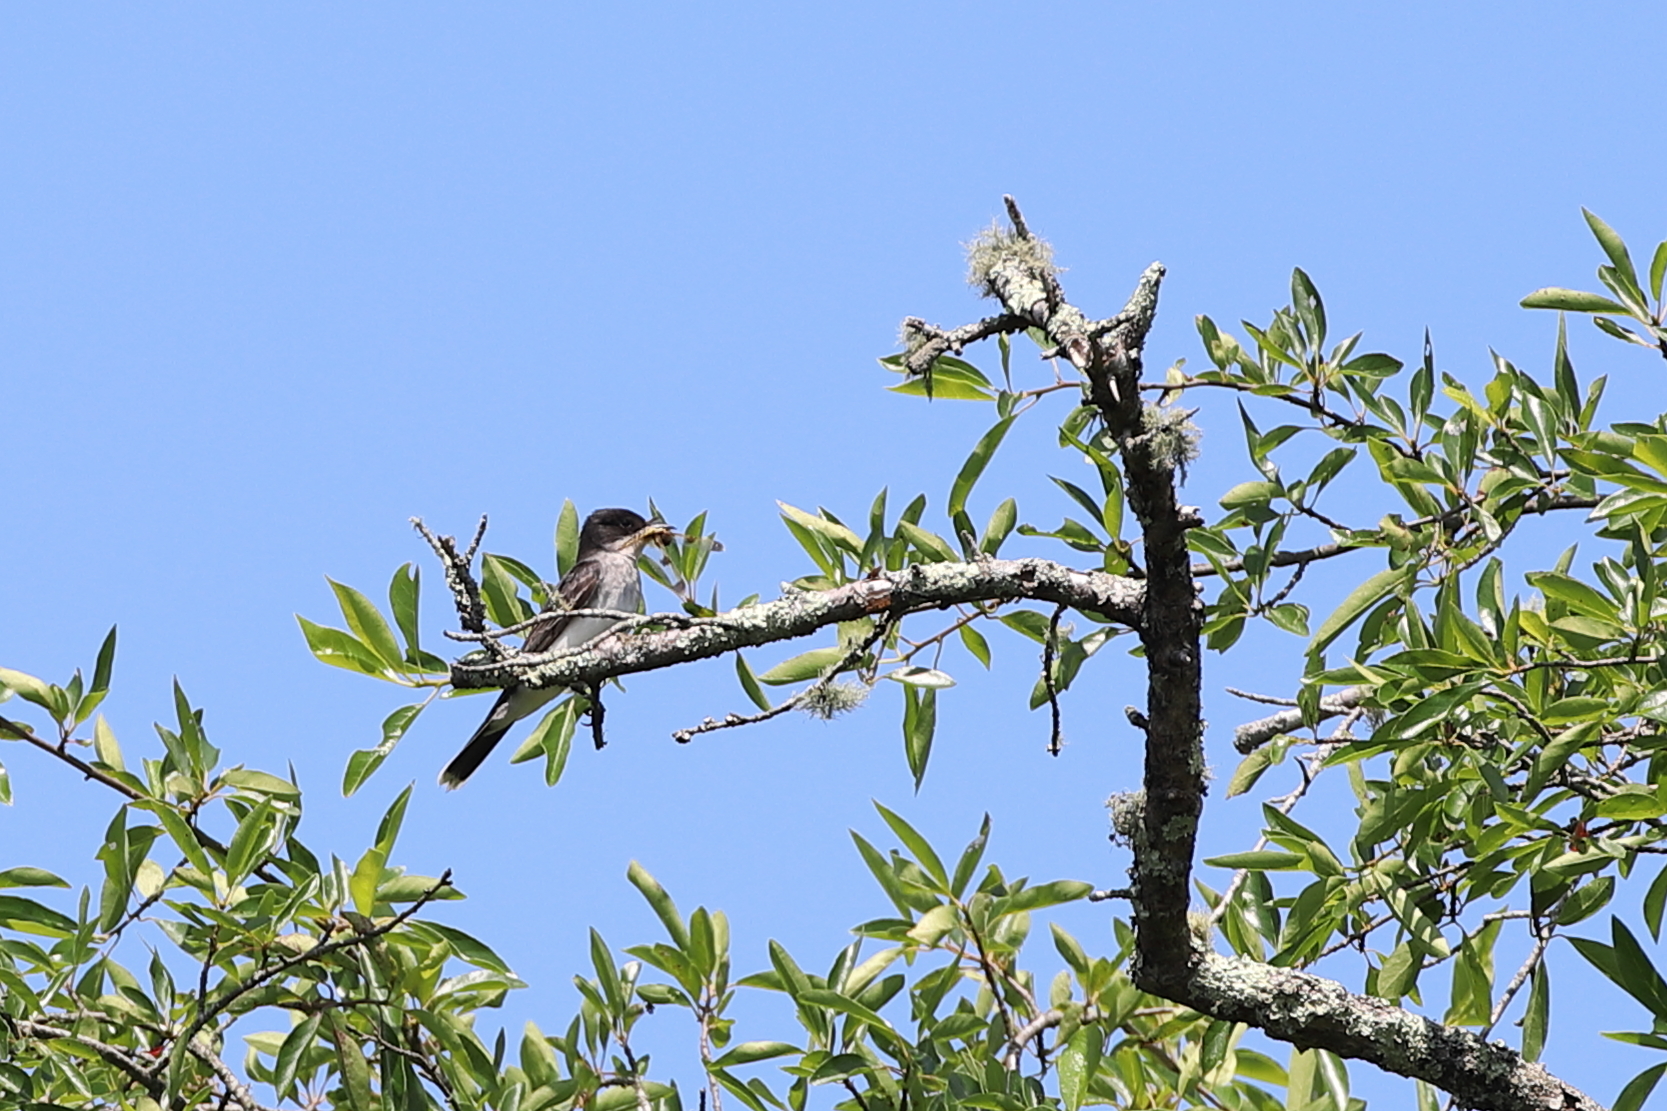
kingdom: Animalia
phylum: Chordata
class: Aves
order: Passeriformes
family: Tyrannidae
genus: Tyrannus
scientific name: Tyrannus tyrannus
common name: Eastern kingbird
